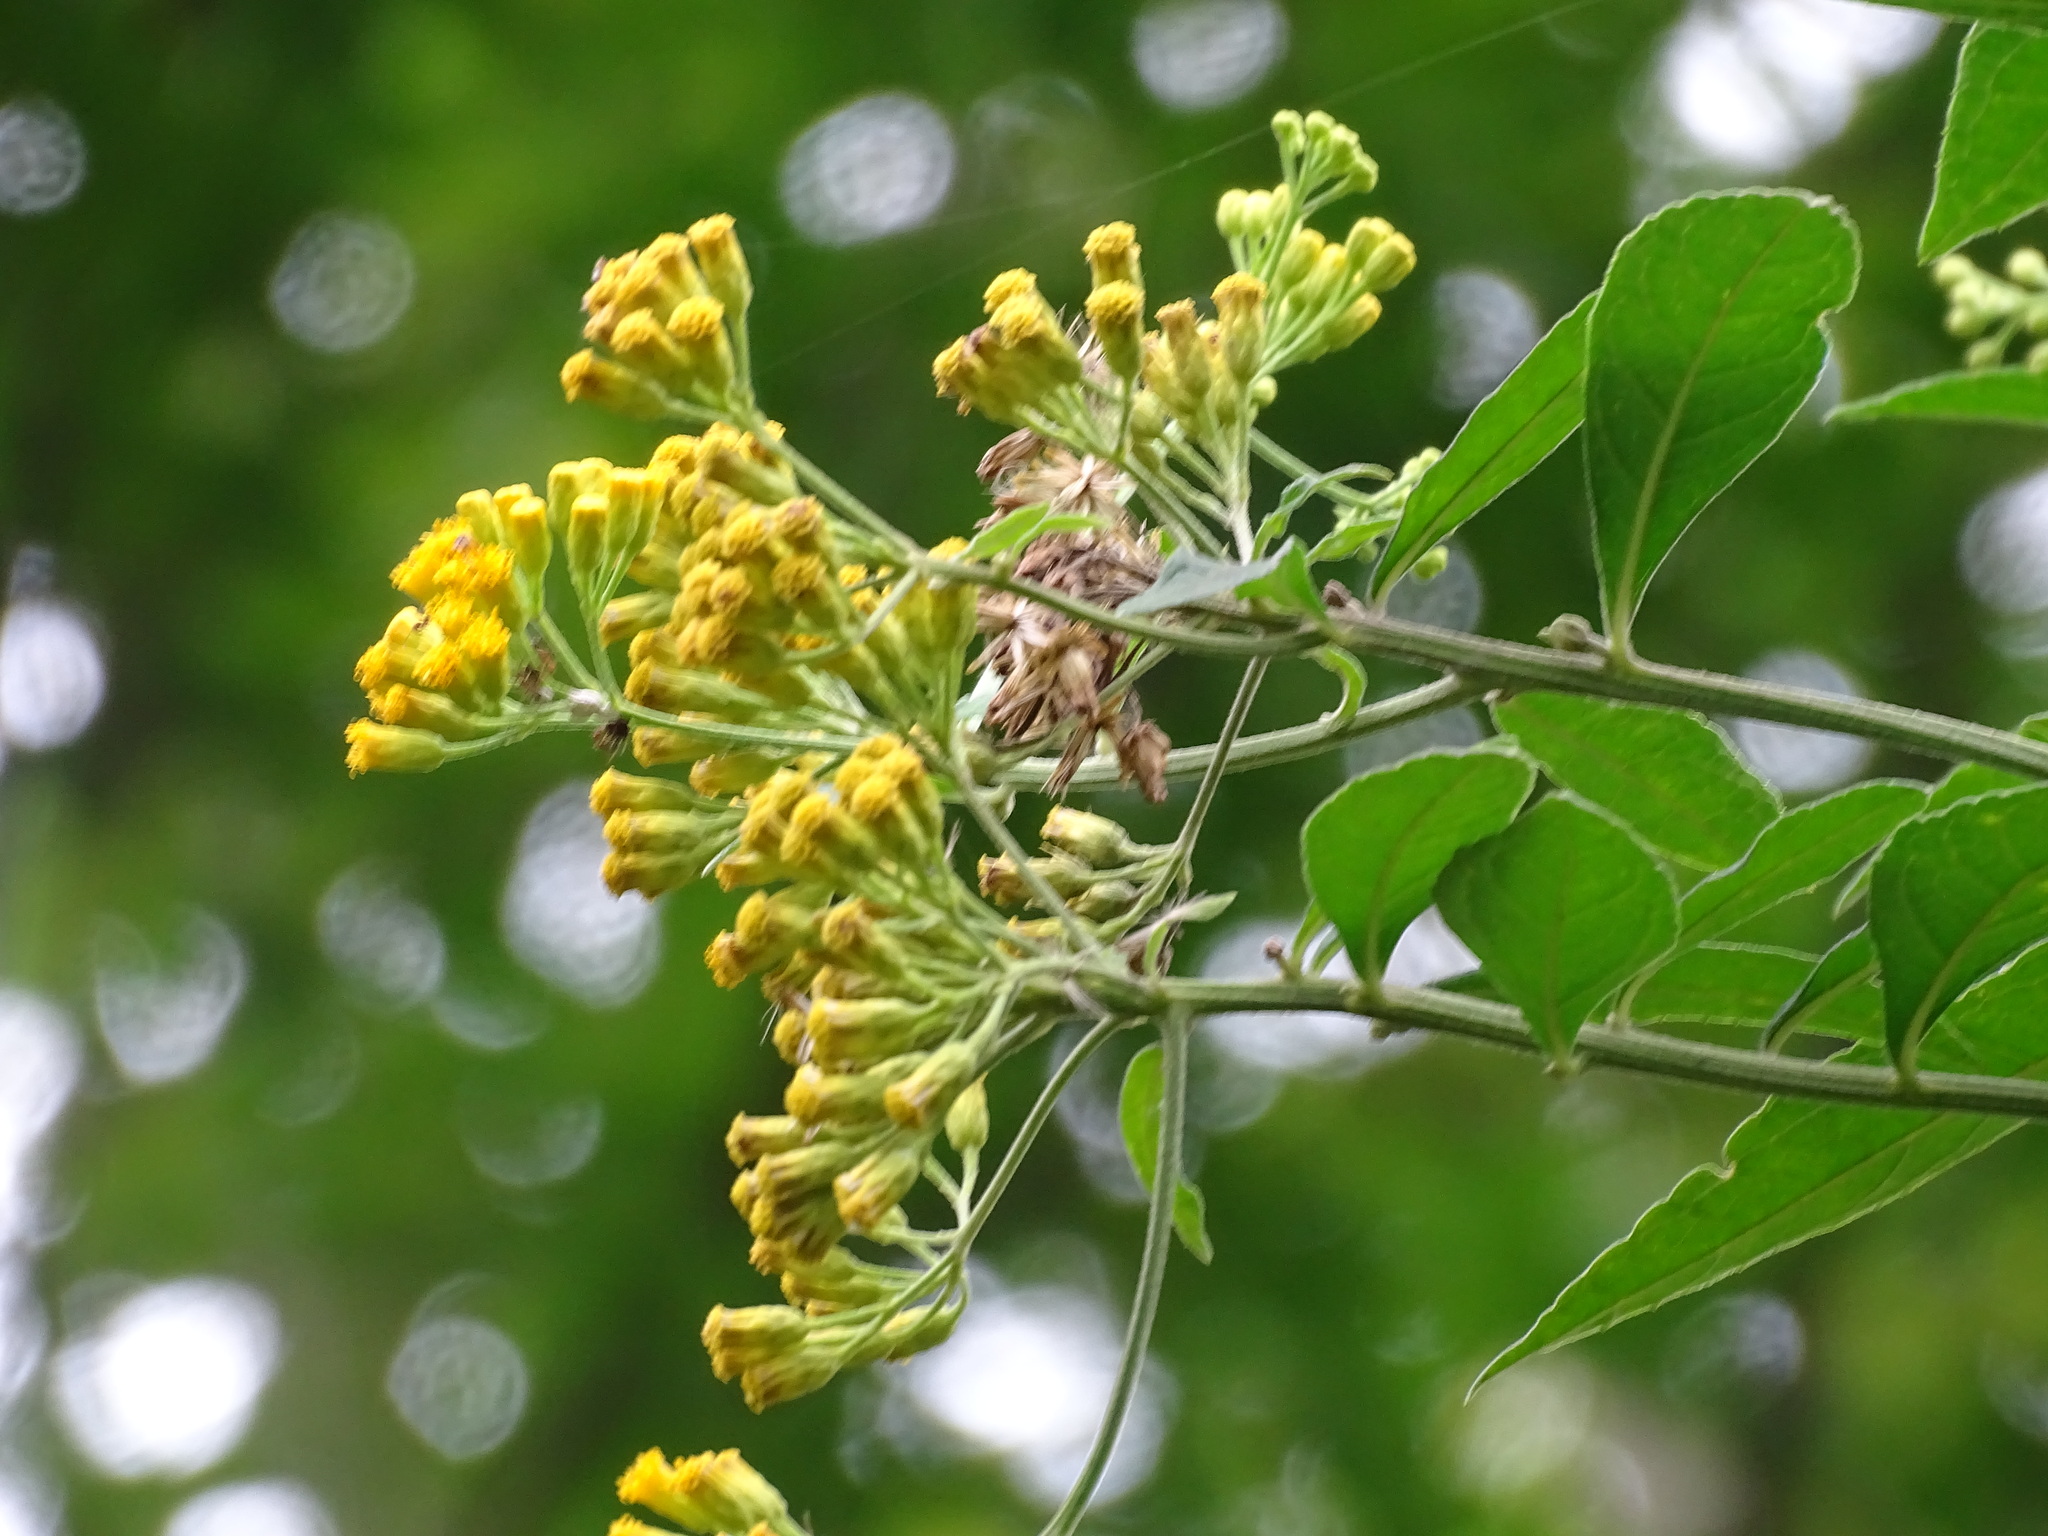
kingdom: Plantae
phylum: Tracheophyta
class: Magnoliopsida
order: Asterales
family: Asteraceae
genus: Neurolaena
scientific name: Neurolaena lobata
